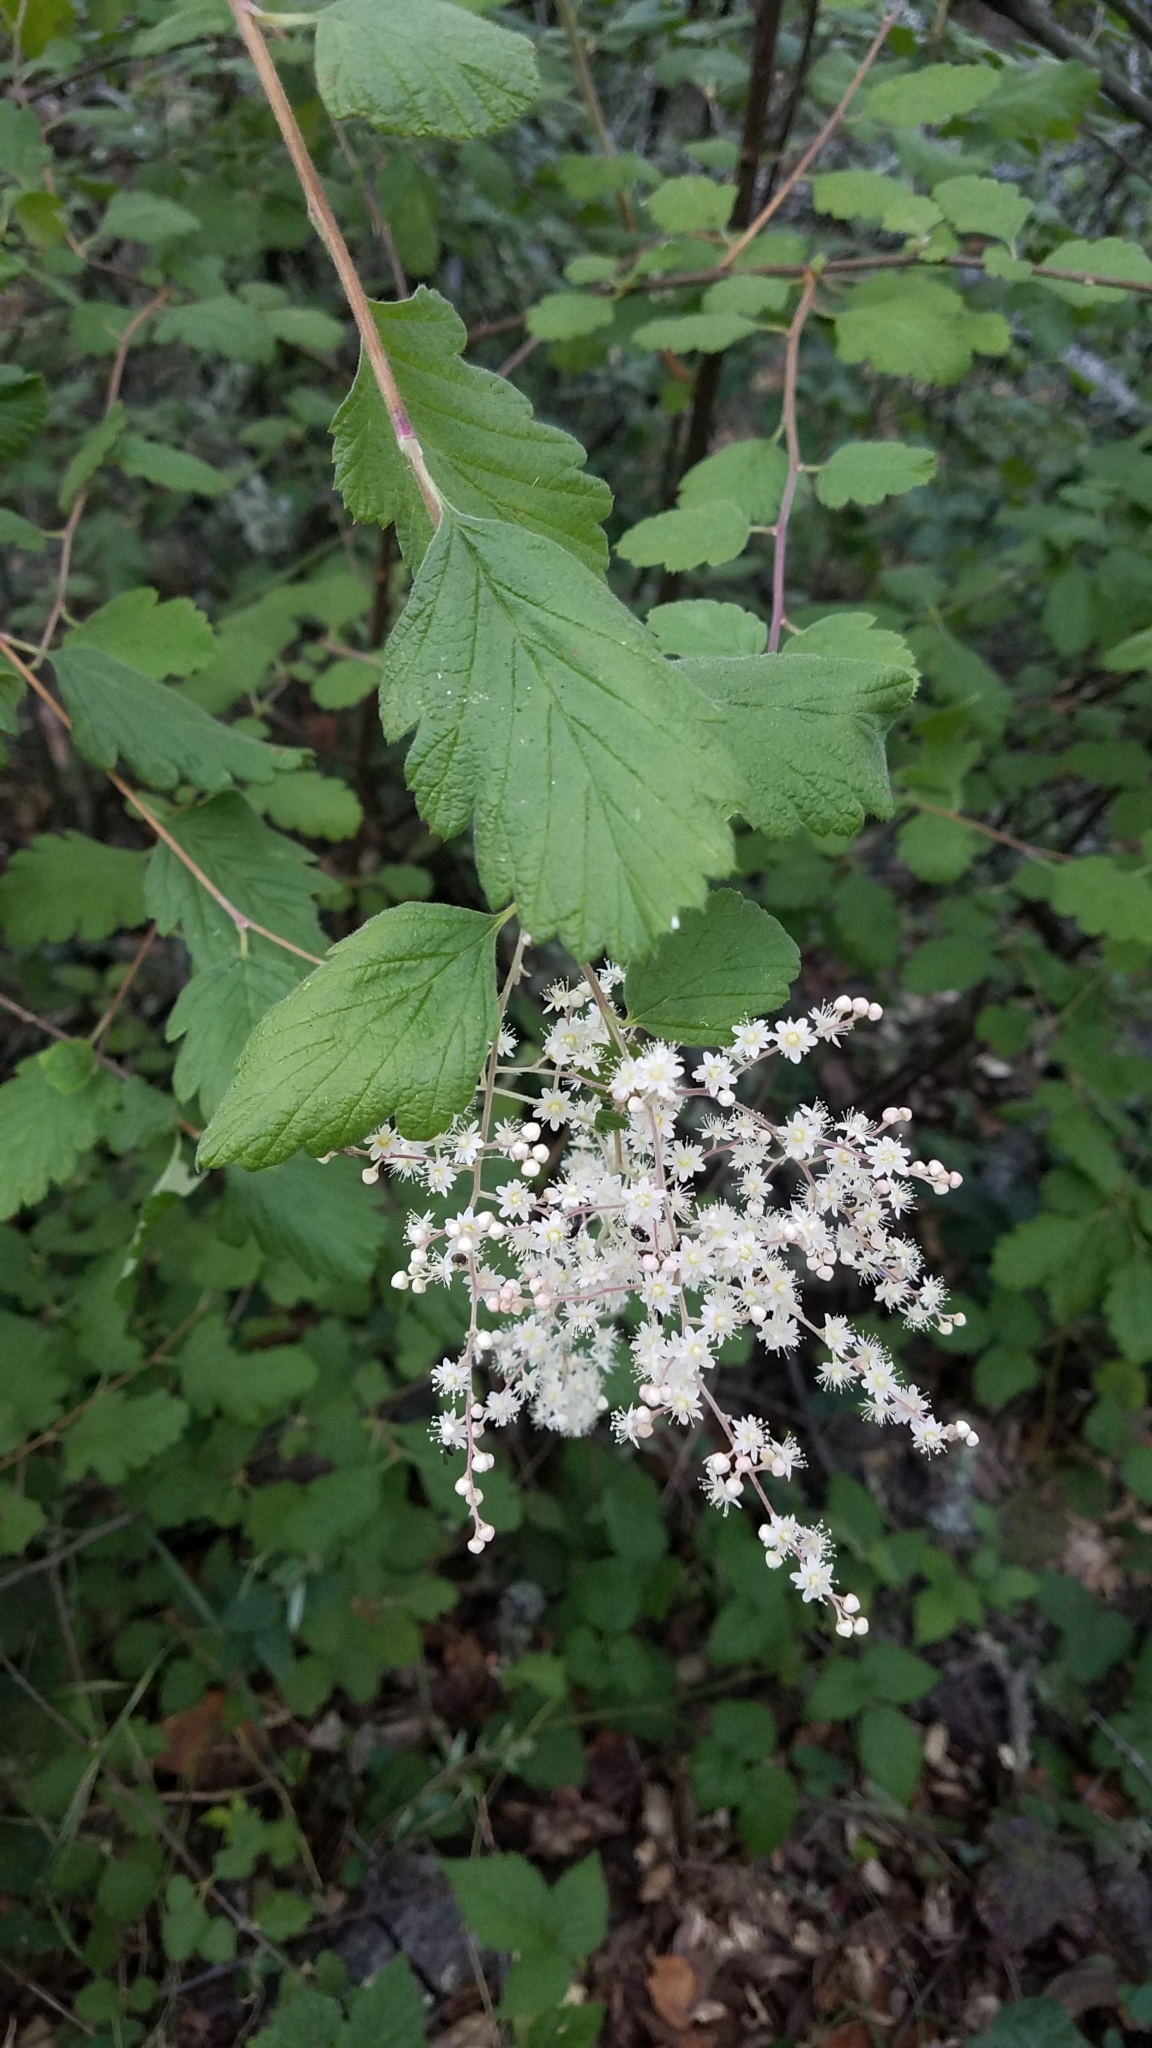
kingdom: Plantae
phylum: Tracheophyta
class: Magnoliopsida
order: Rosales
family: Rosaceae
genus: Holodiscus
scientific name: Holodiscus discolor
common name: Oceanspray
